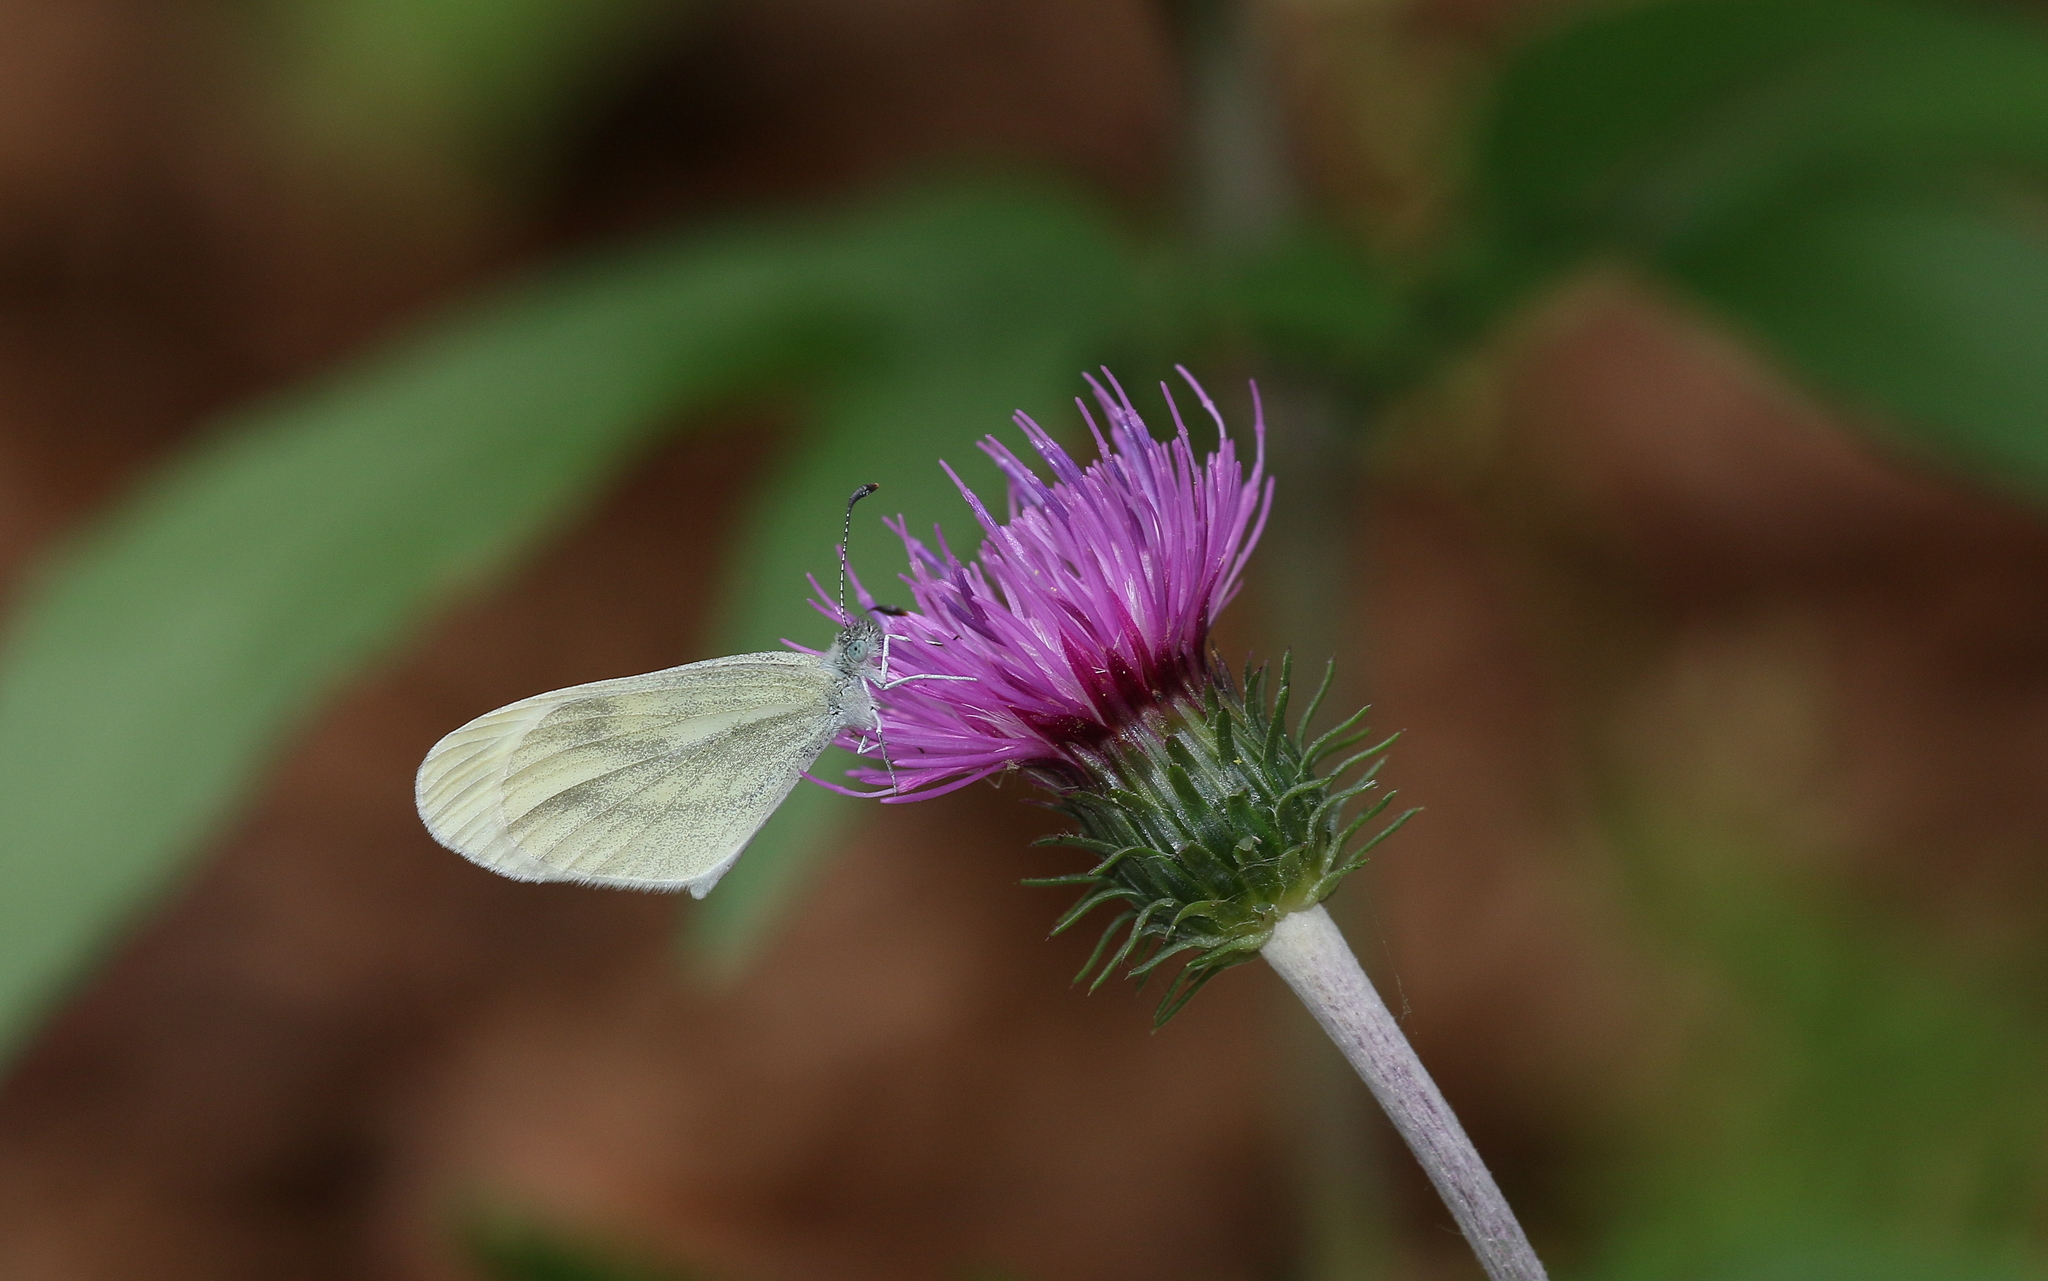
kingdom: Animalia
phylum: Arthropoda
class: Insecta
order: Lepidoptera
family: Pieridae
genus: Leptidea
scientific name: Leptidea
